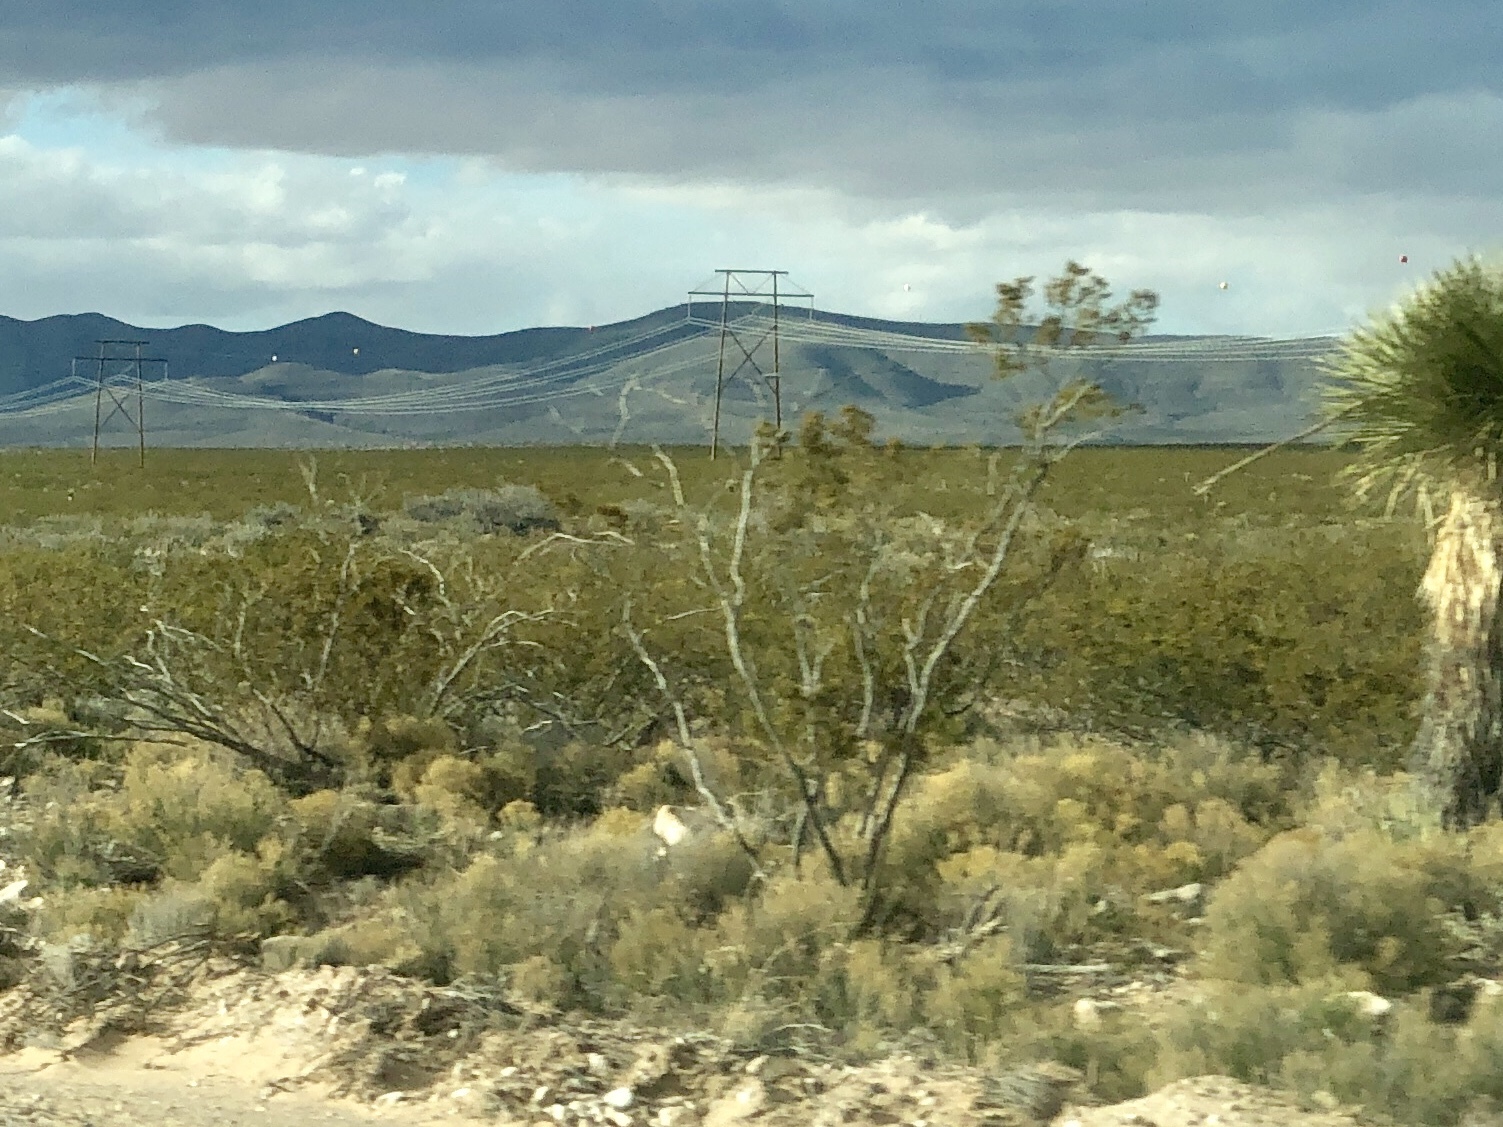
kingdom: Plantae
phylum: Tracheophyta
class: Magnoliopsida
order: Zygophyllales
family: Zygophyllaceae
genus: Larrea
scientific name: Larrea tridentata
